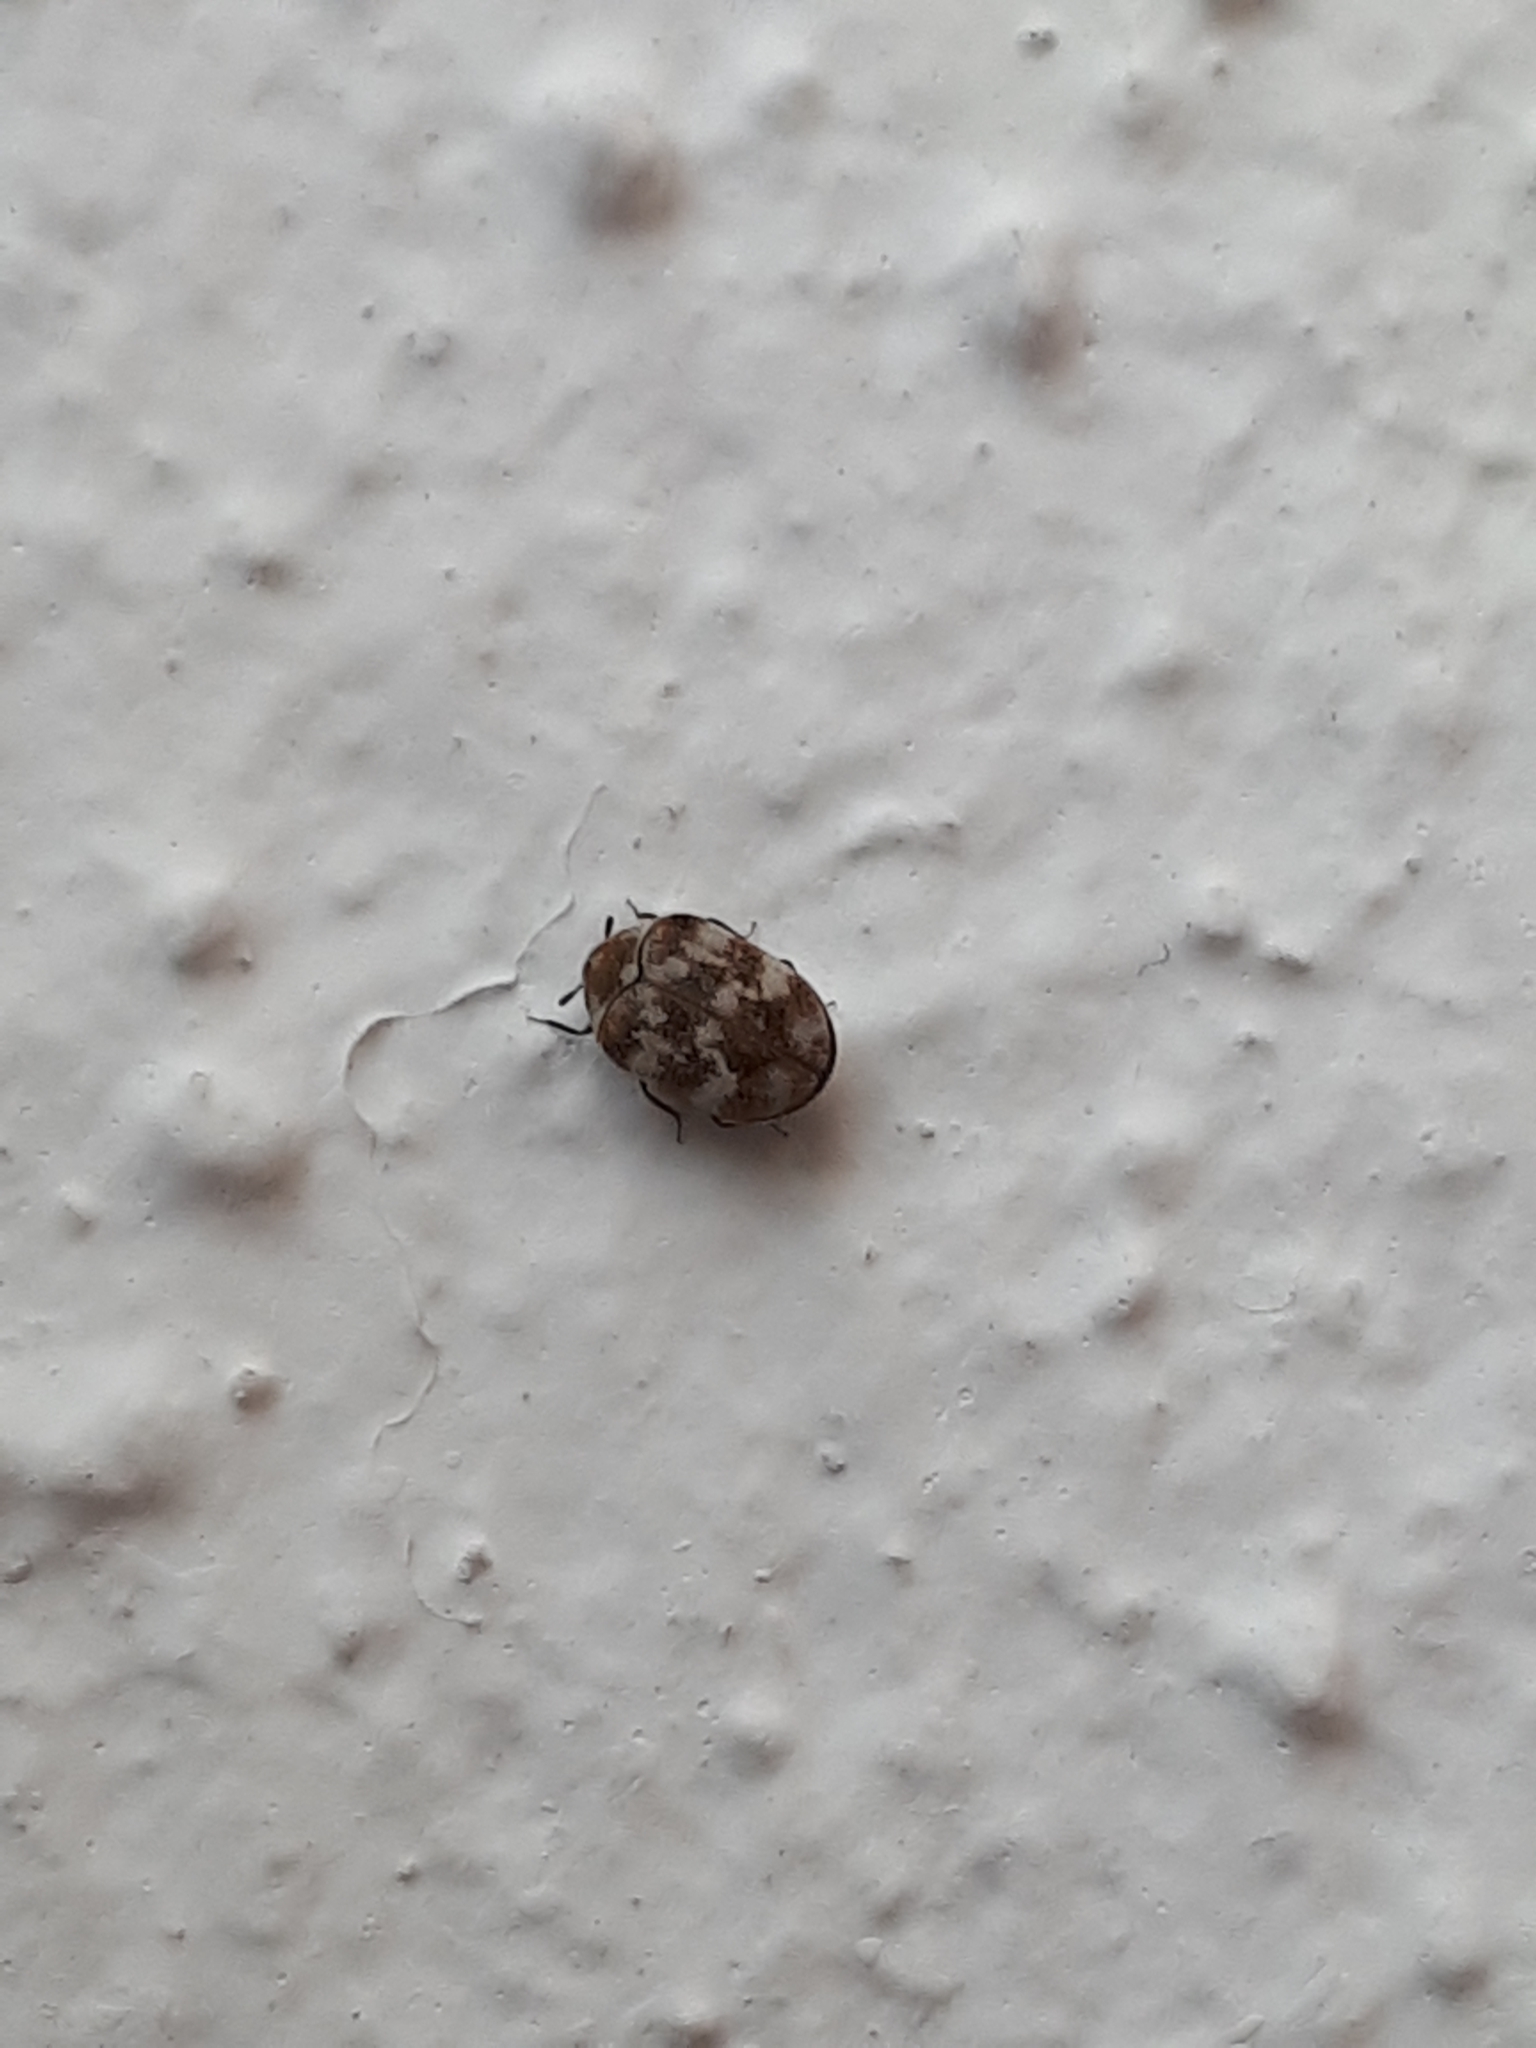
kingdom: Animalia
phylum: Arthropoda
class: Insecta
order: Coleoptera
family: Dermestidae
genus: Anthrenus
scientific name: Anthrenus verbasci
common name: Varied carpet beetle
